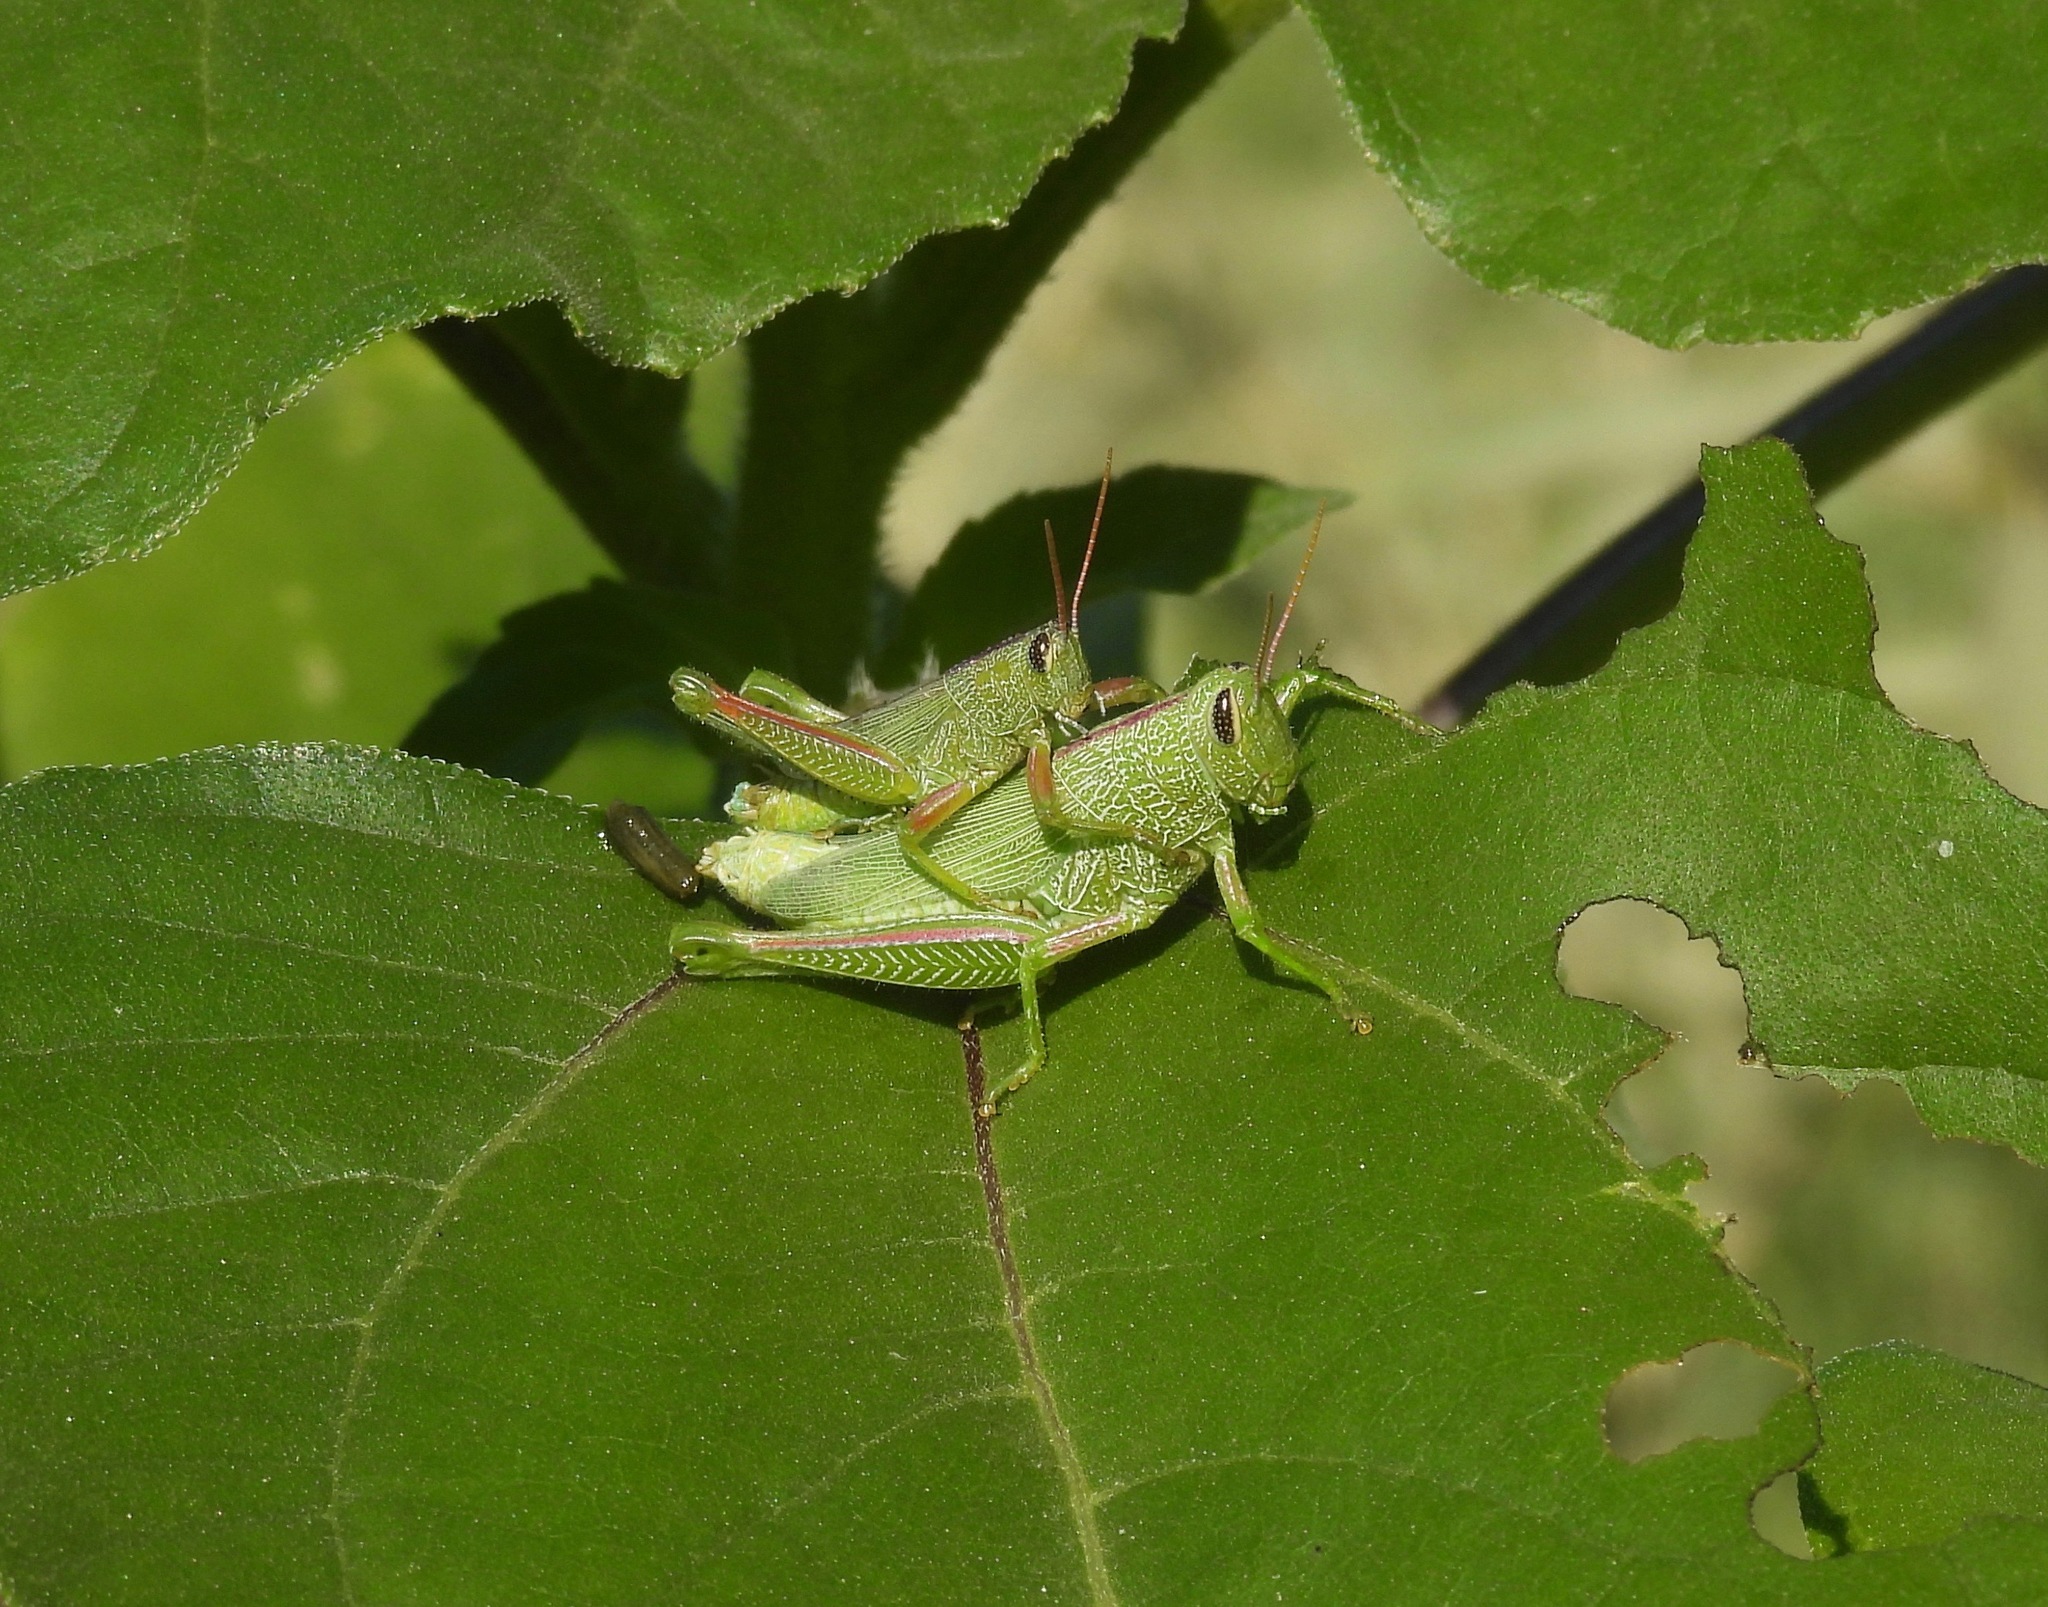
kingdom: Animalia
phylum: Arthropoda
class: Insecta
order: Orthoptera
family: Acrididae
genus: Hesperotettix
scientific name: Hesperotettix speciosus
